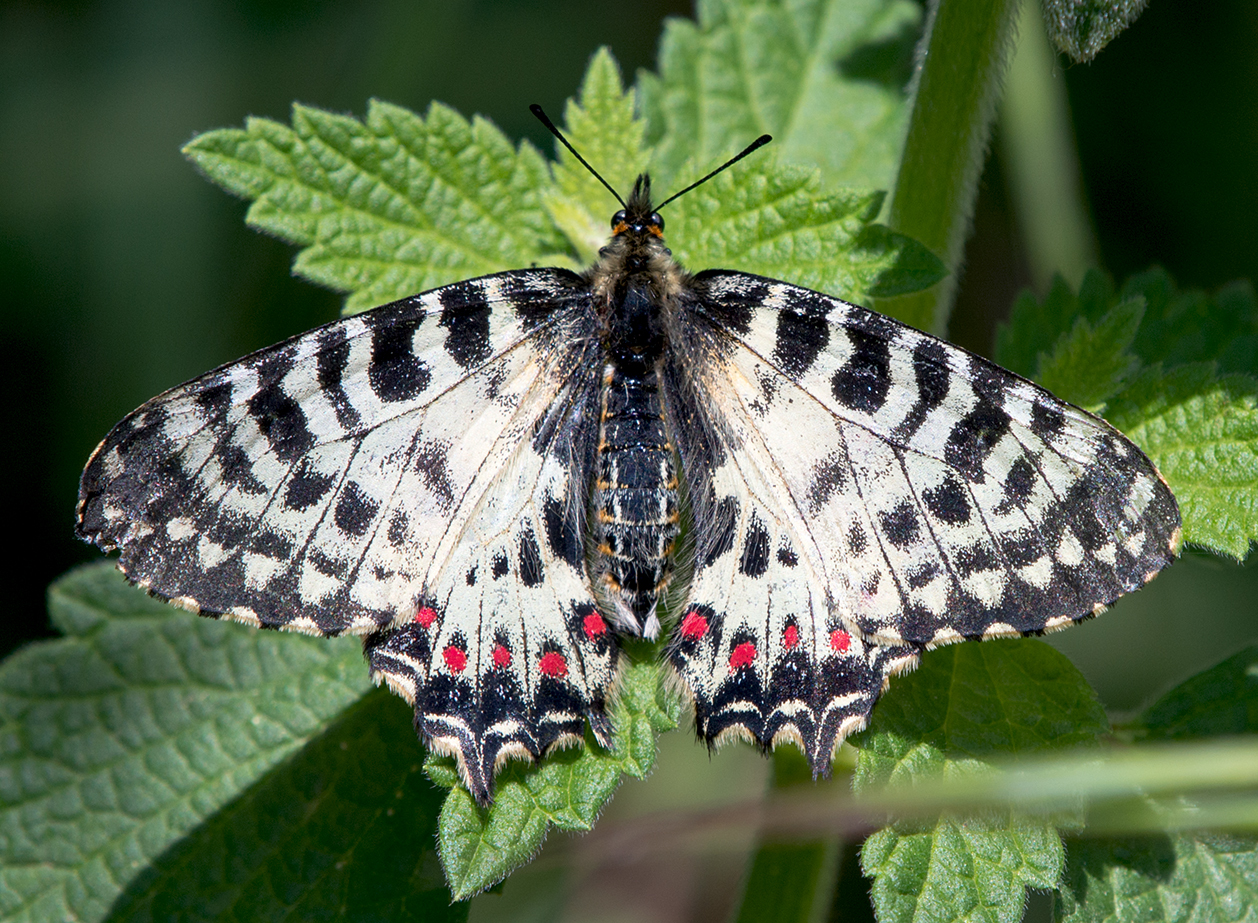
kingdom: Animalia
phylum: Arthropoda
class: Insecta
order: Lepidoptera
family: Papilionidae
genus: Zerynthia
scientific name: Zerynthia cerisy
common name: Eastern festoon
